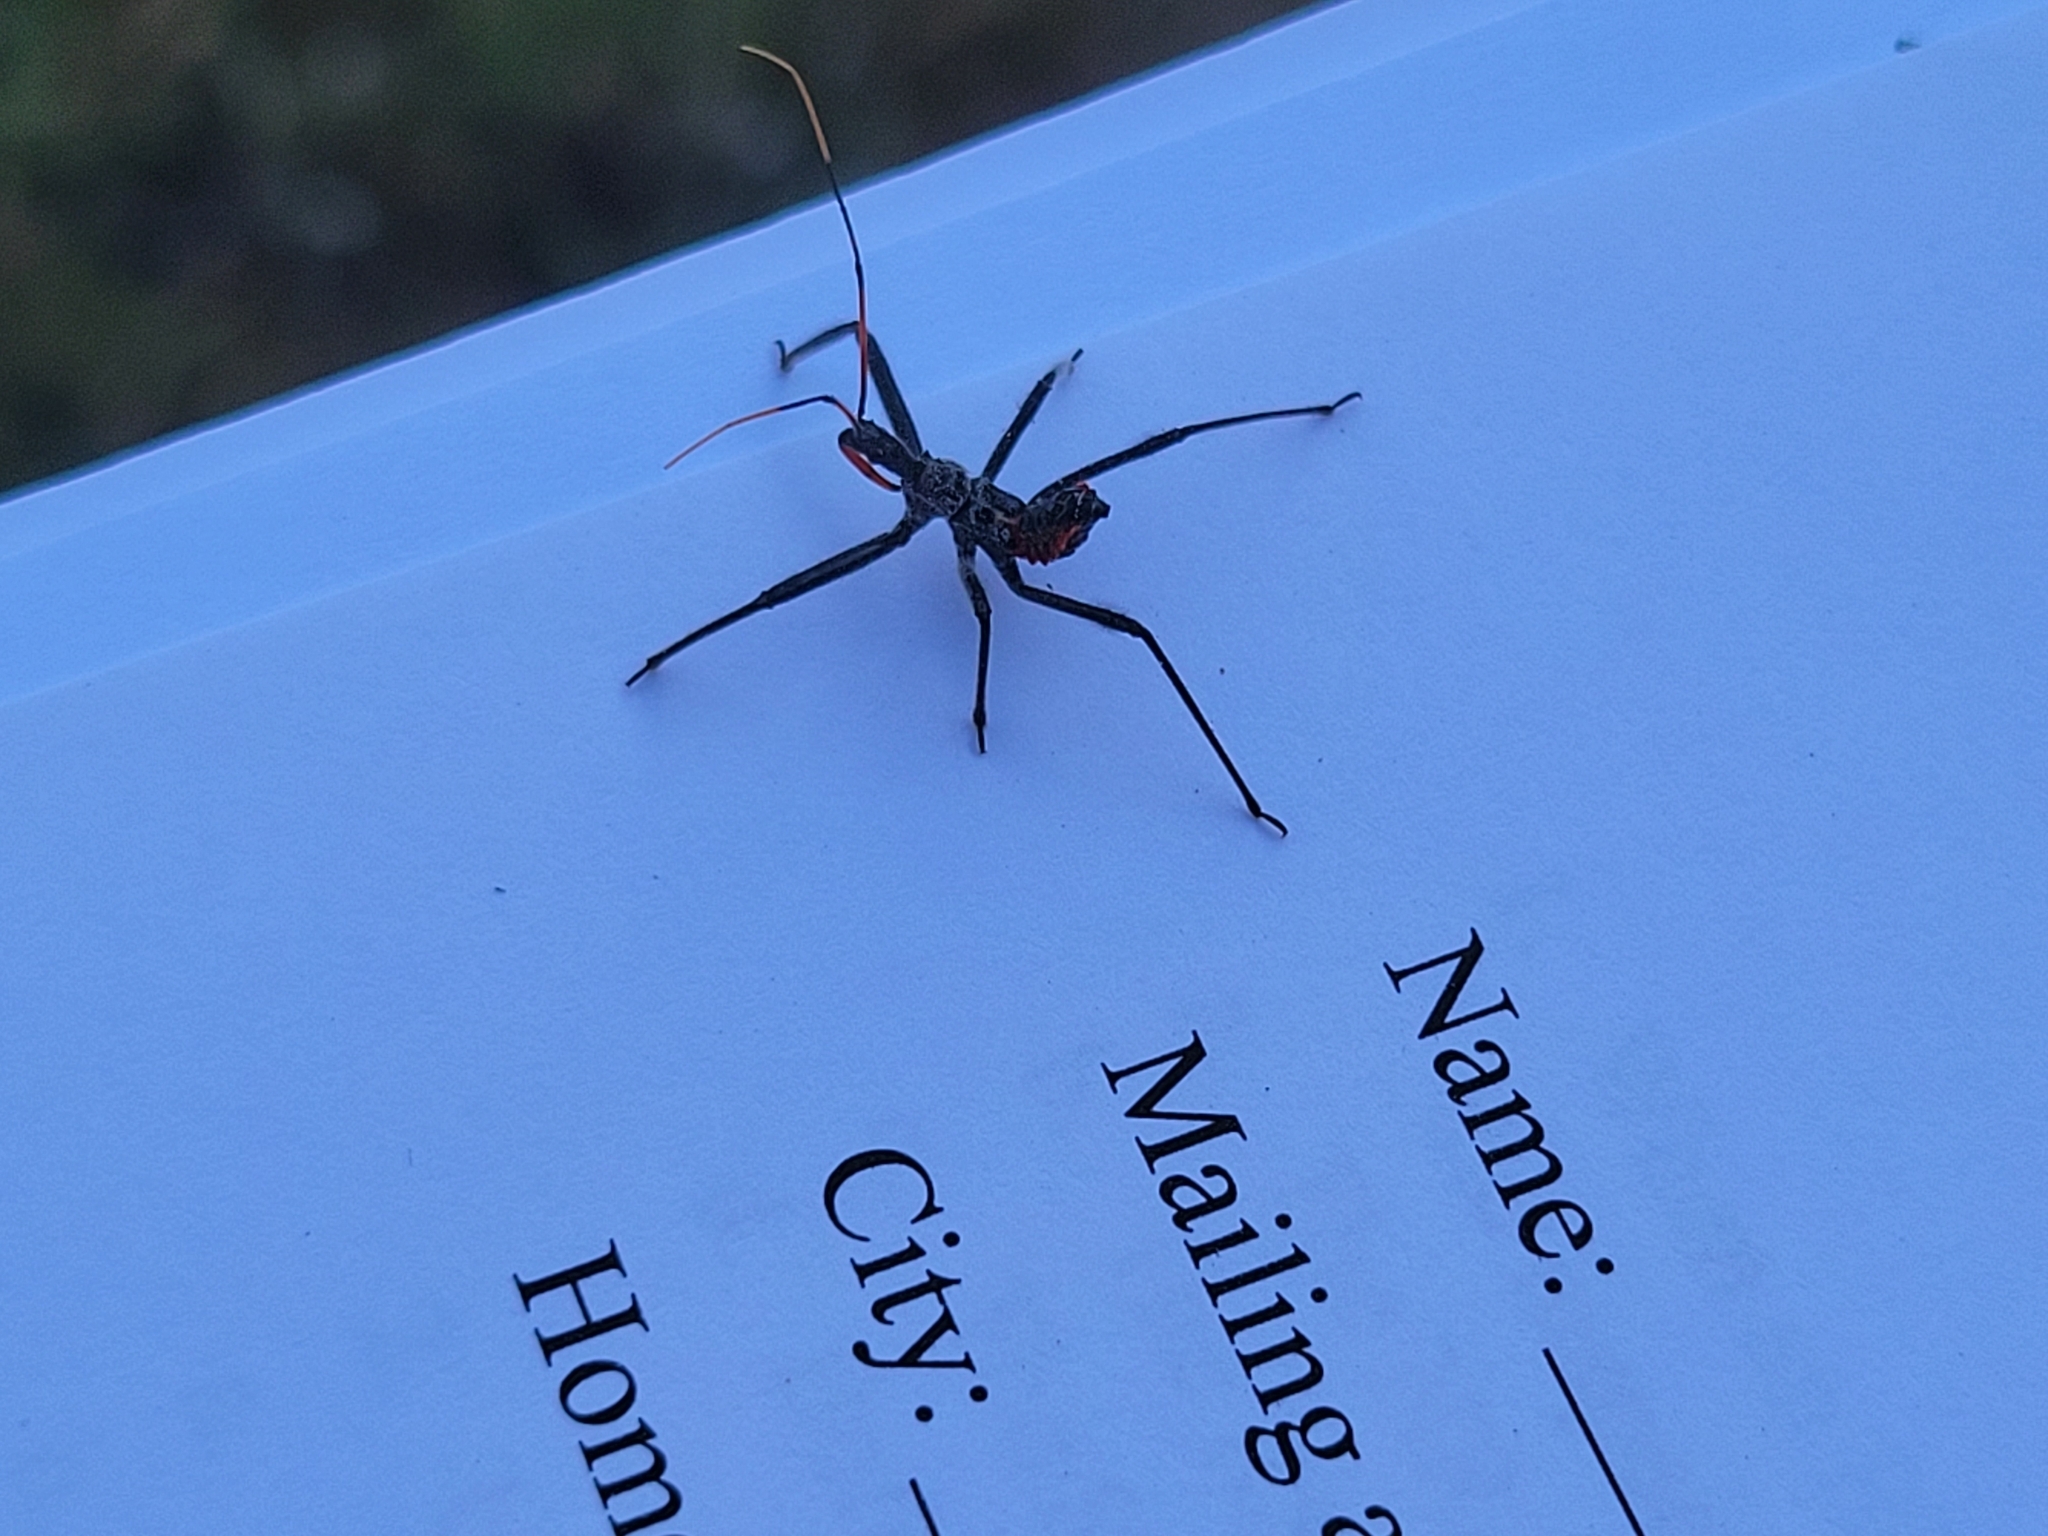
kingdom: Animalia
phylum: Arthropoda
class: Insecta
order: Hemiptera
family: Reduviidae
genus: Arilus
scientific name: Arilus cristatus
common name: North american wheel bug
